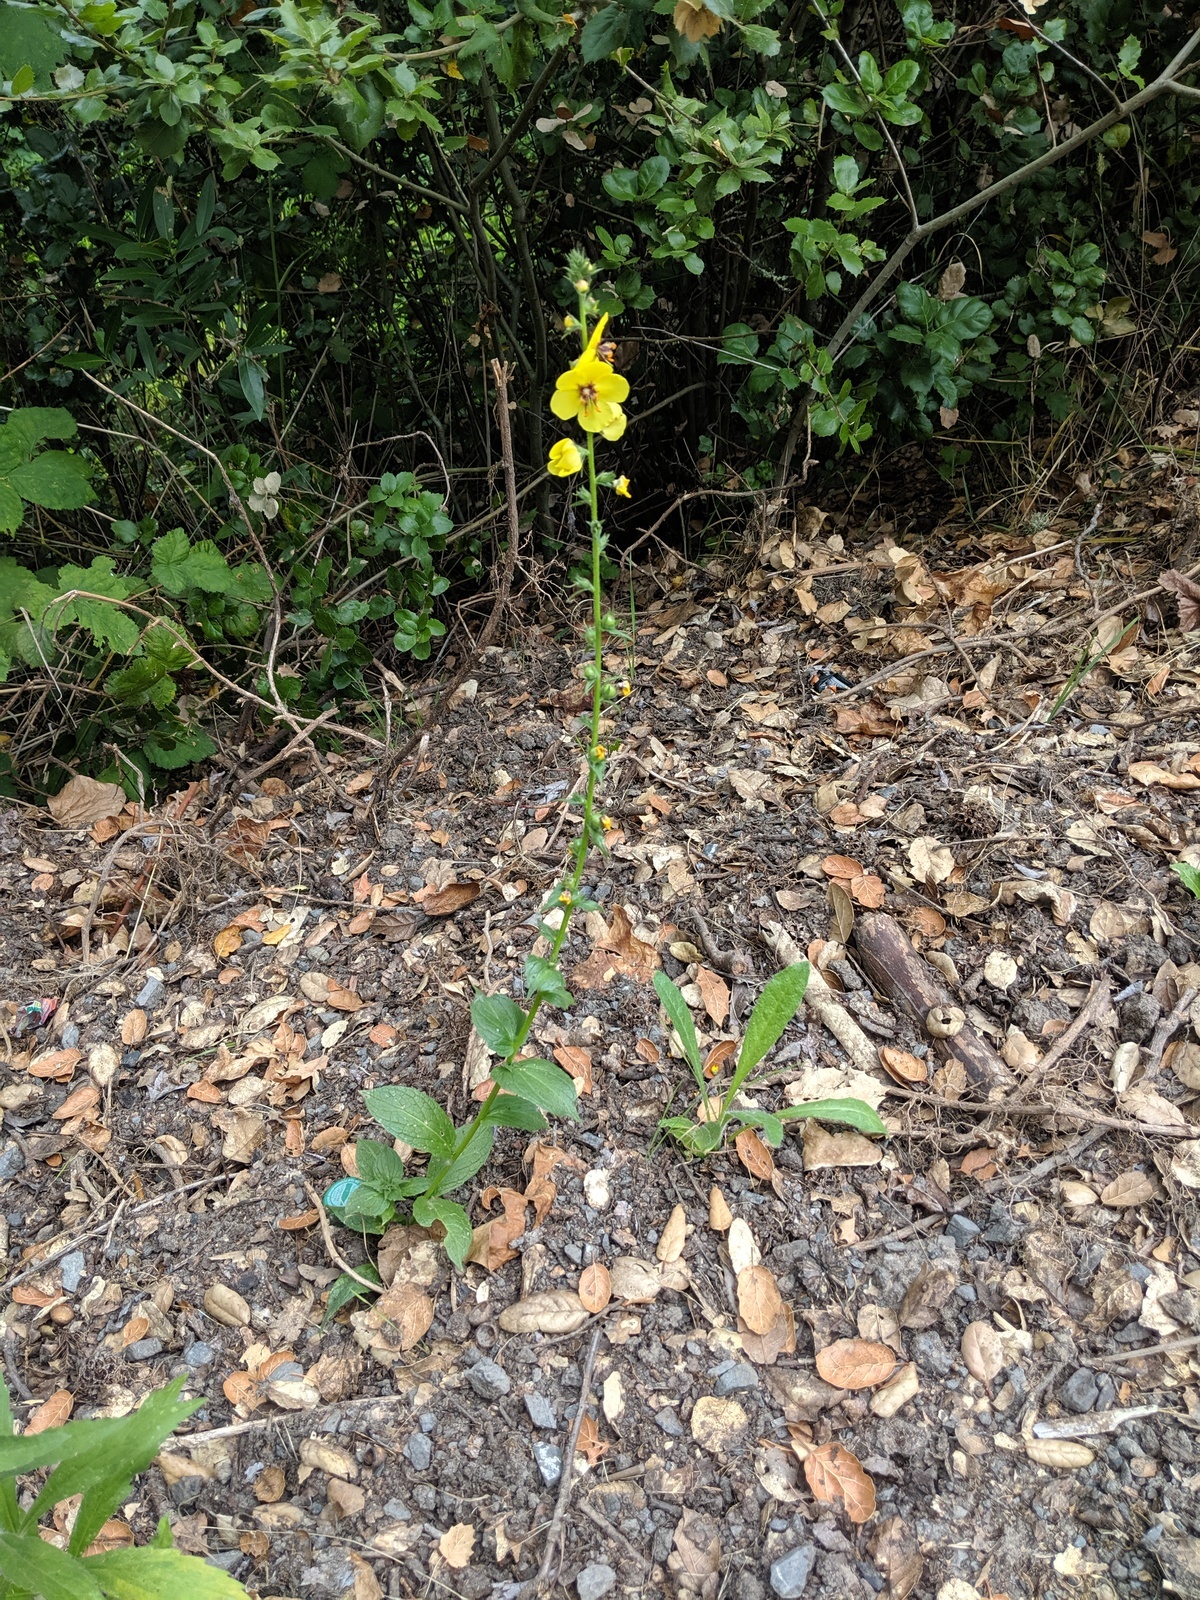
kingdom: Plantae
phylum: Tracheophyta
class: Magnoliopsida
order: Lamiales
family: Scrophulariaceae
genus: Verbascum
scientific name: Verbascum virgatum
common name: Twiggy mullein
